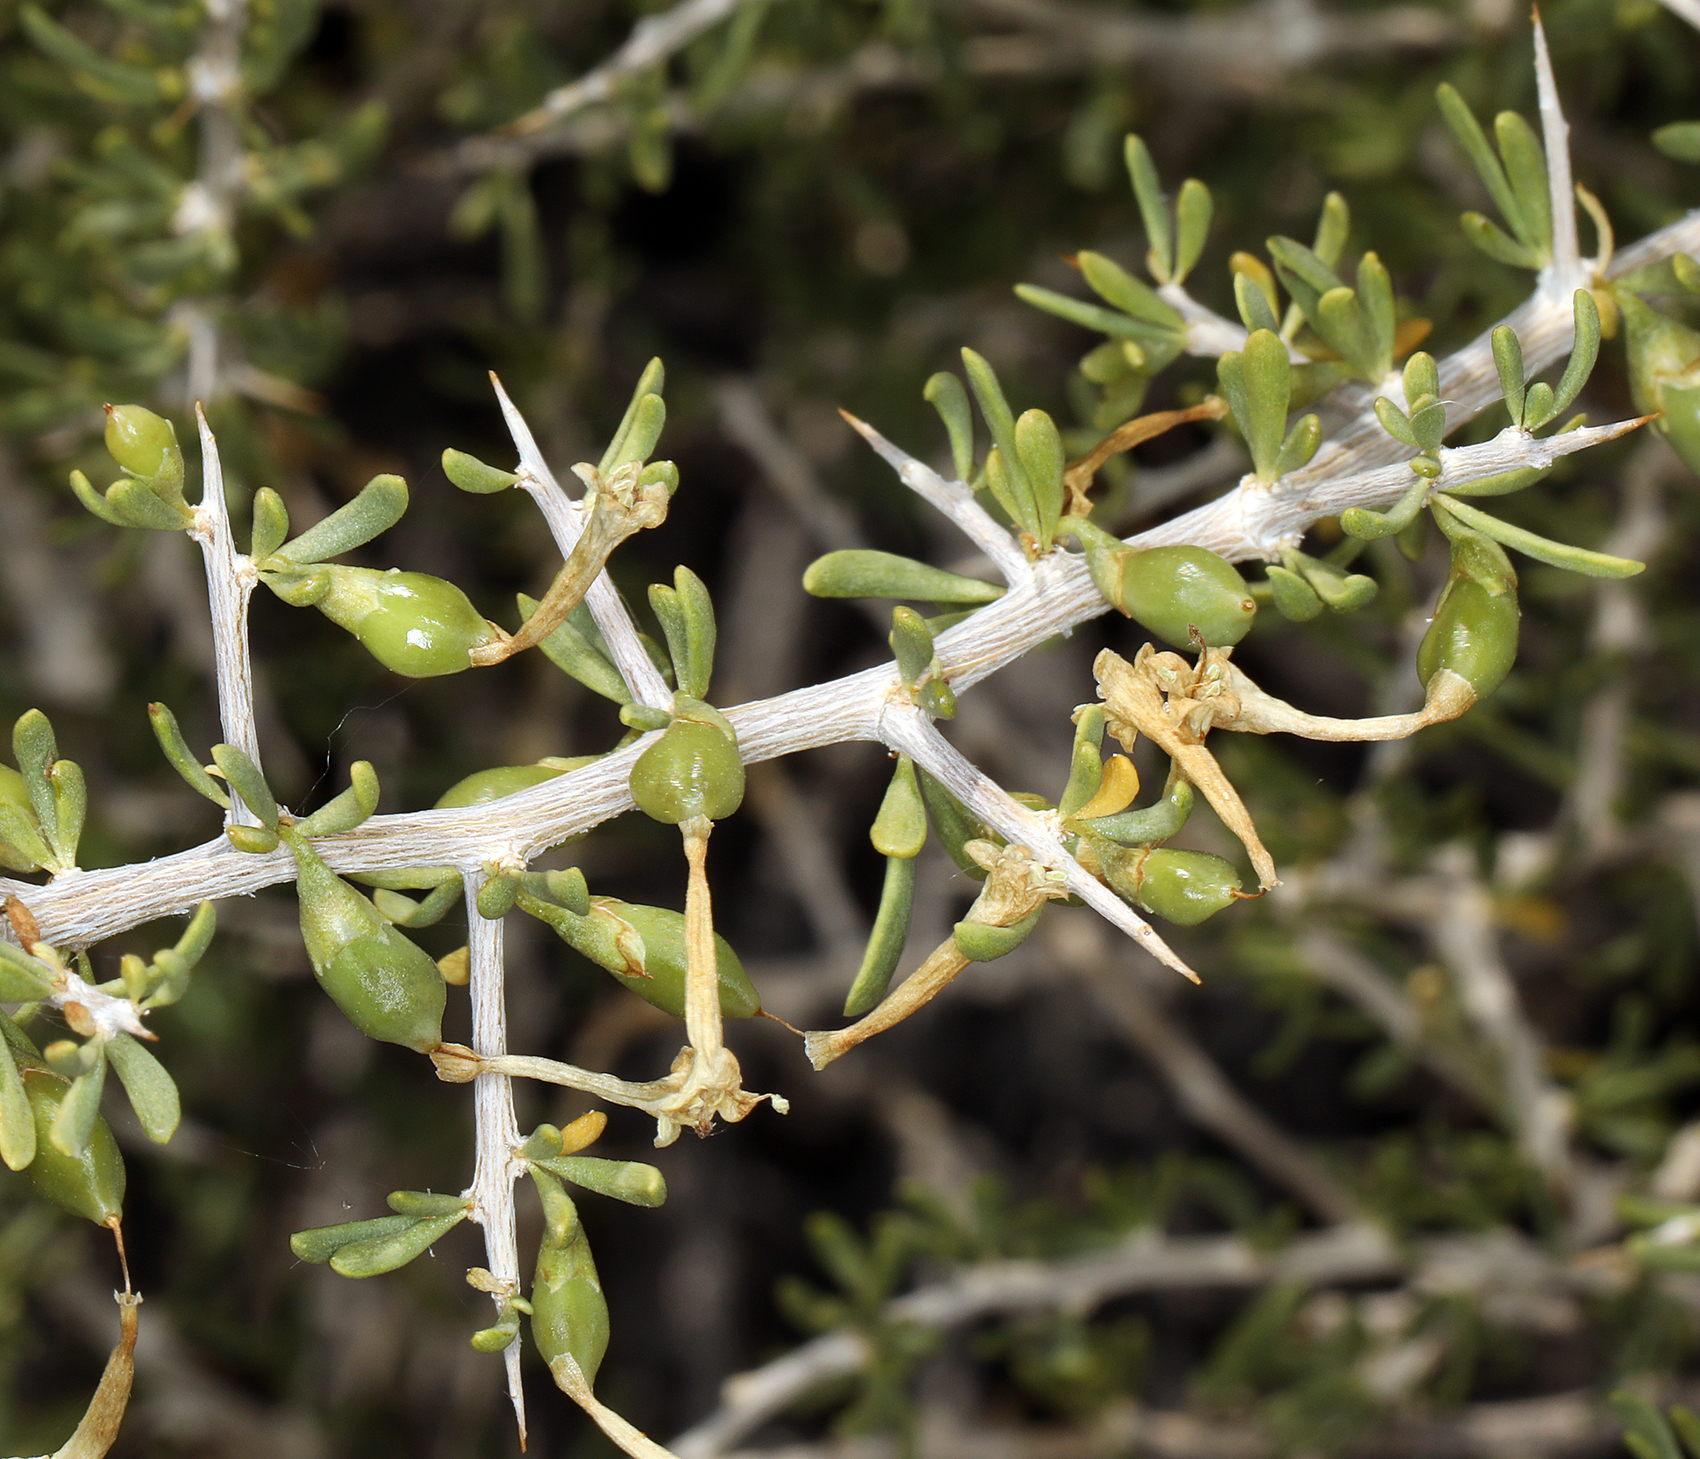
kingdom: Plantae
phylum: Tracheophyta
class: Magnoliopsida
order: Solanales
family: Solanaceae
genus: Lycium
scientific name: Lycium andersonii
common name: Water-jacket
